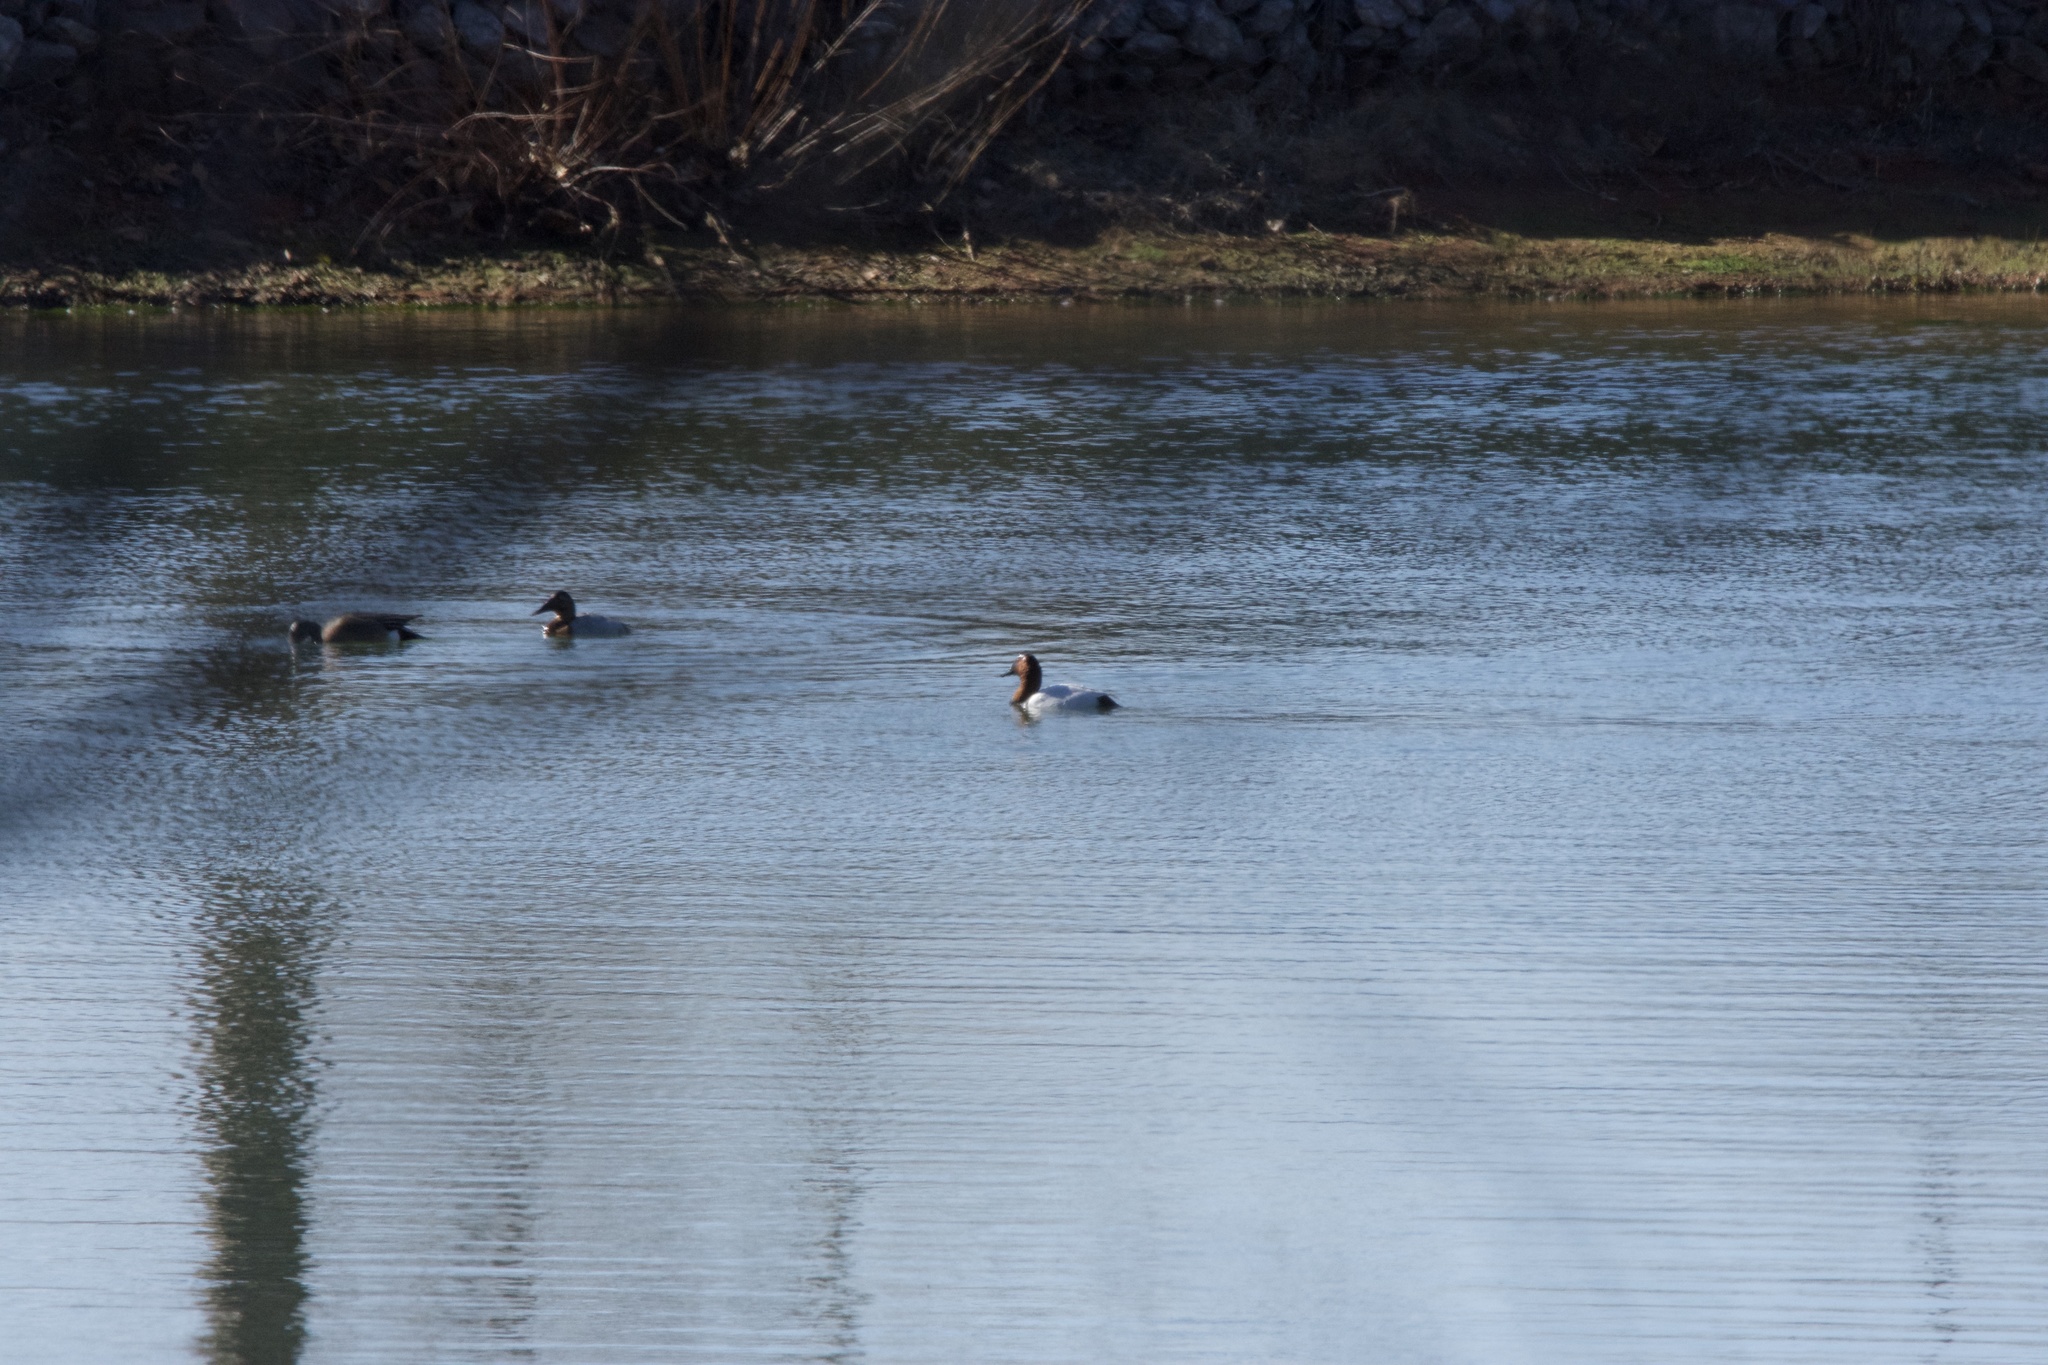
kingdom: Animalia
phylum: Chordata
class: Aves
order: Anseriformes
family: Anatidae
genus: Aythya
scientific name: Aythya valisineria
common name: Canvasback
